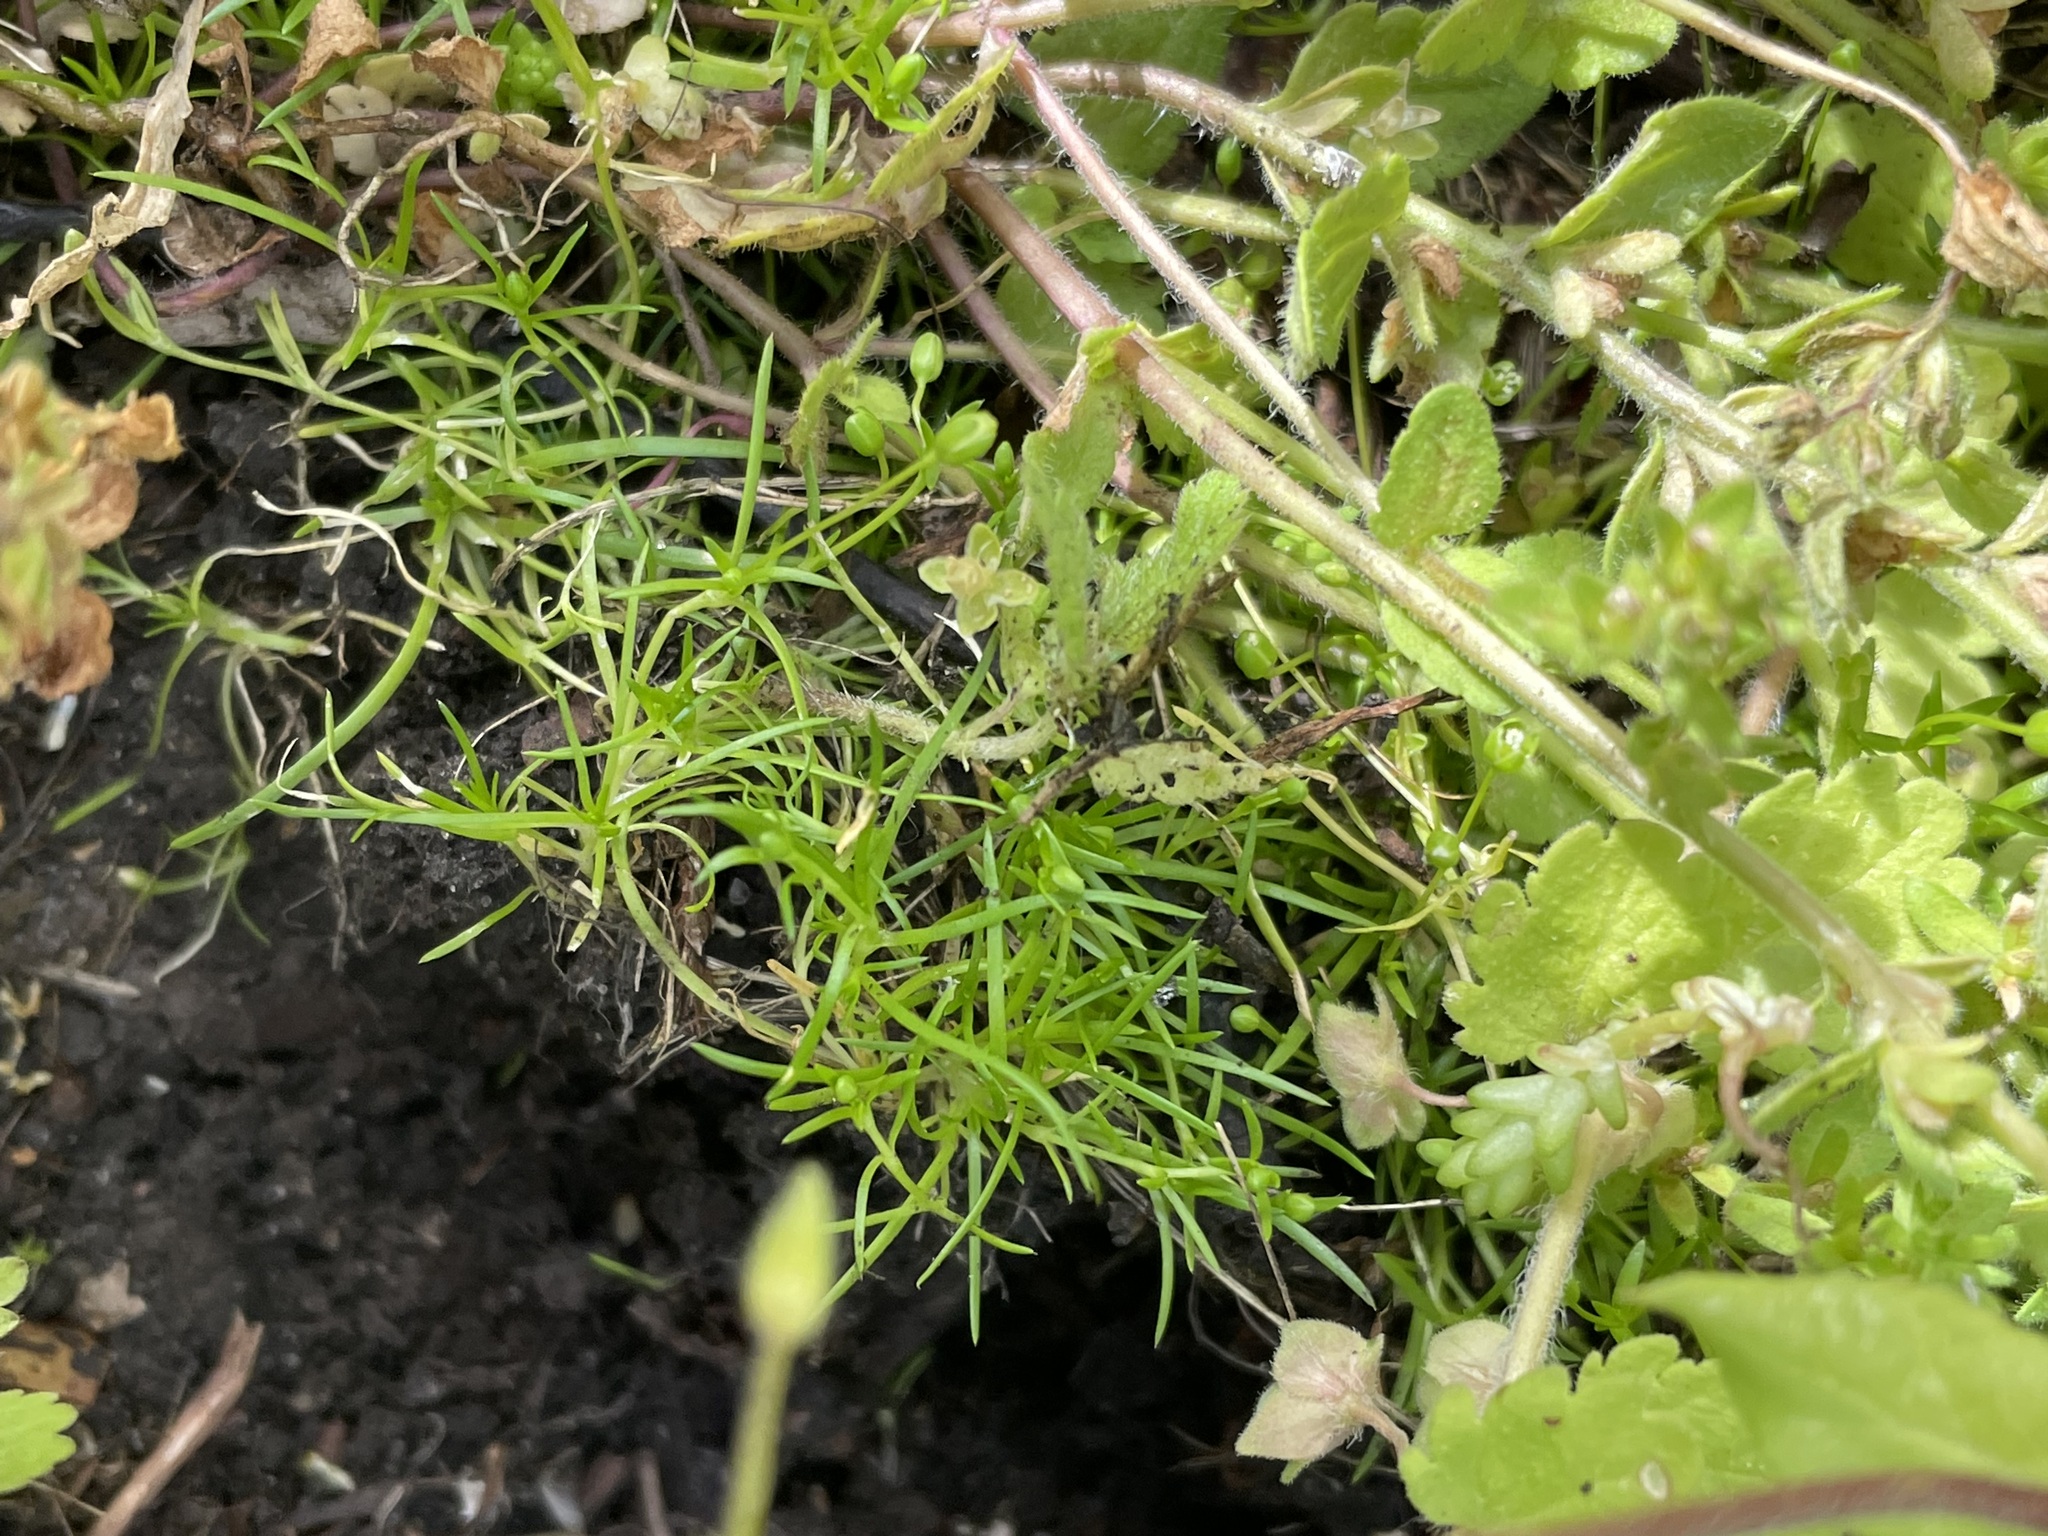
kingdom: Plantae
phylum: Tracheophyta
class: Magnoliopsida
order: Caryophyllales
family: Caryophyllaceae
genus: Sagina
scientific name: Sagina procumbens
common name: Procumbent pearlwort
